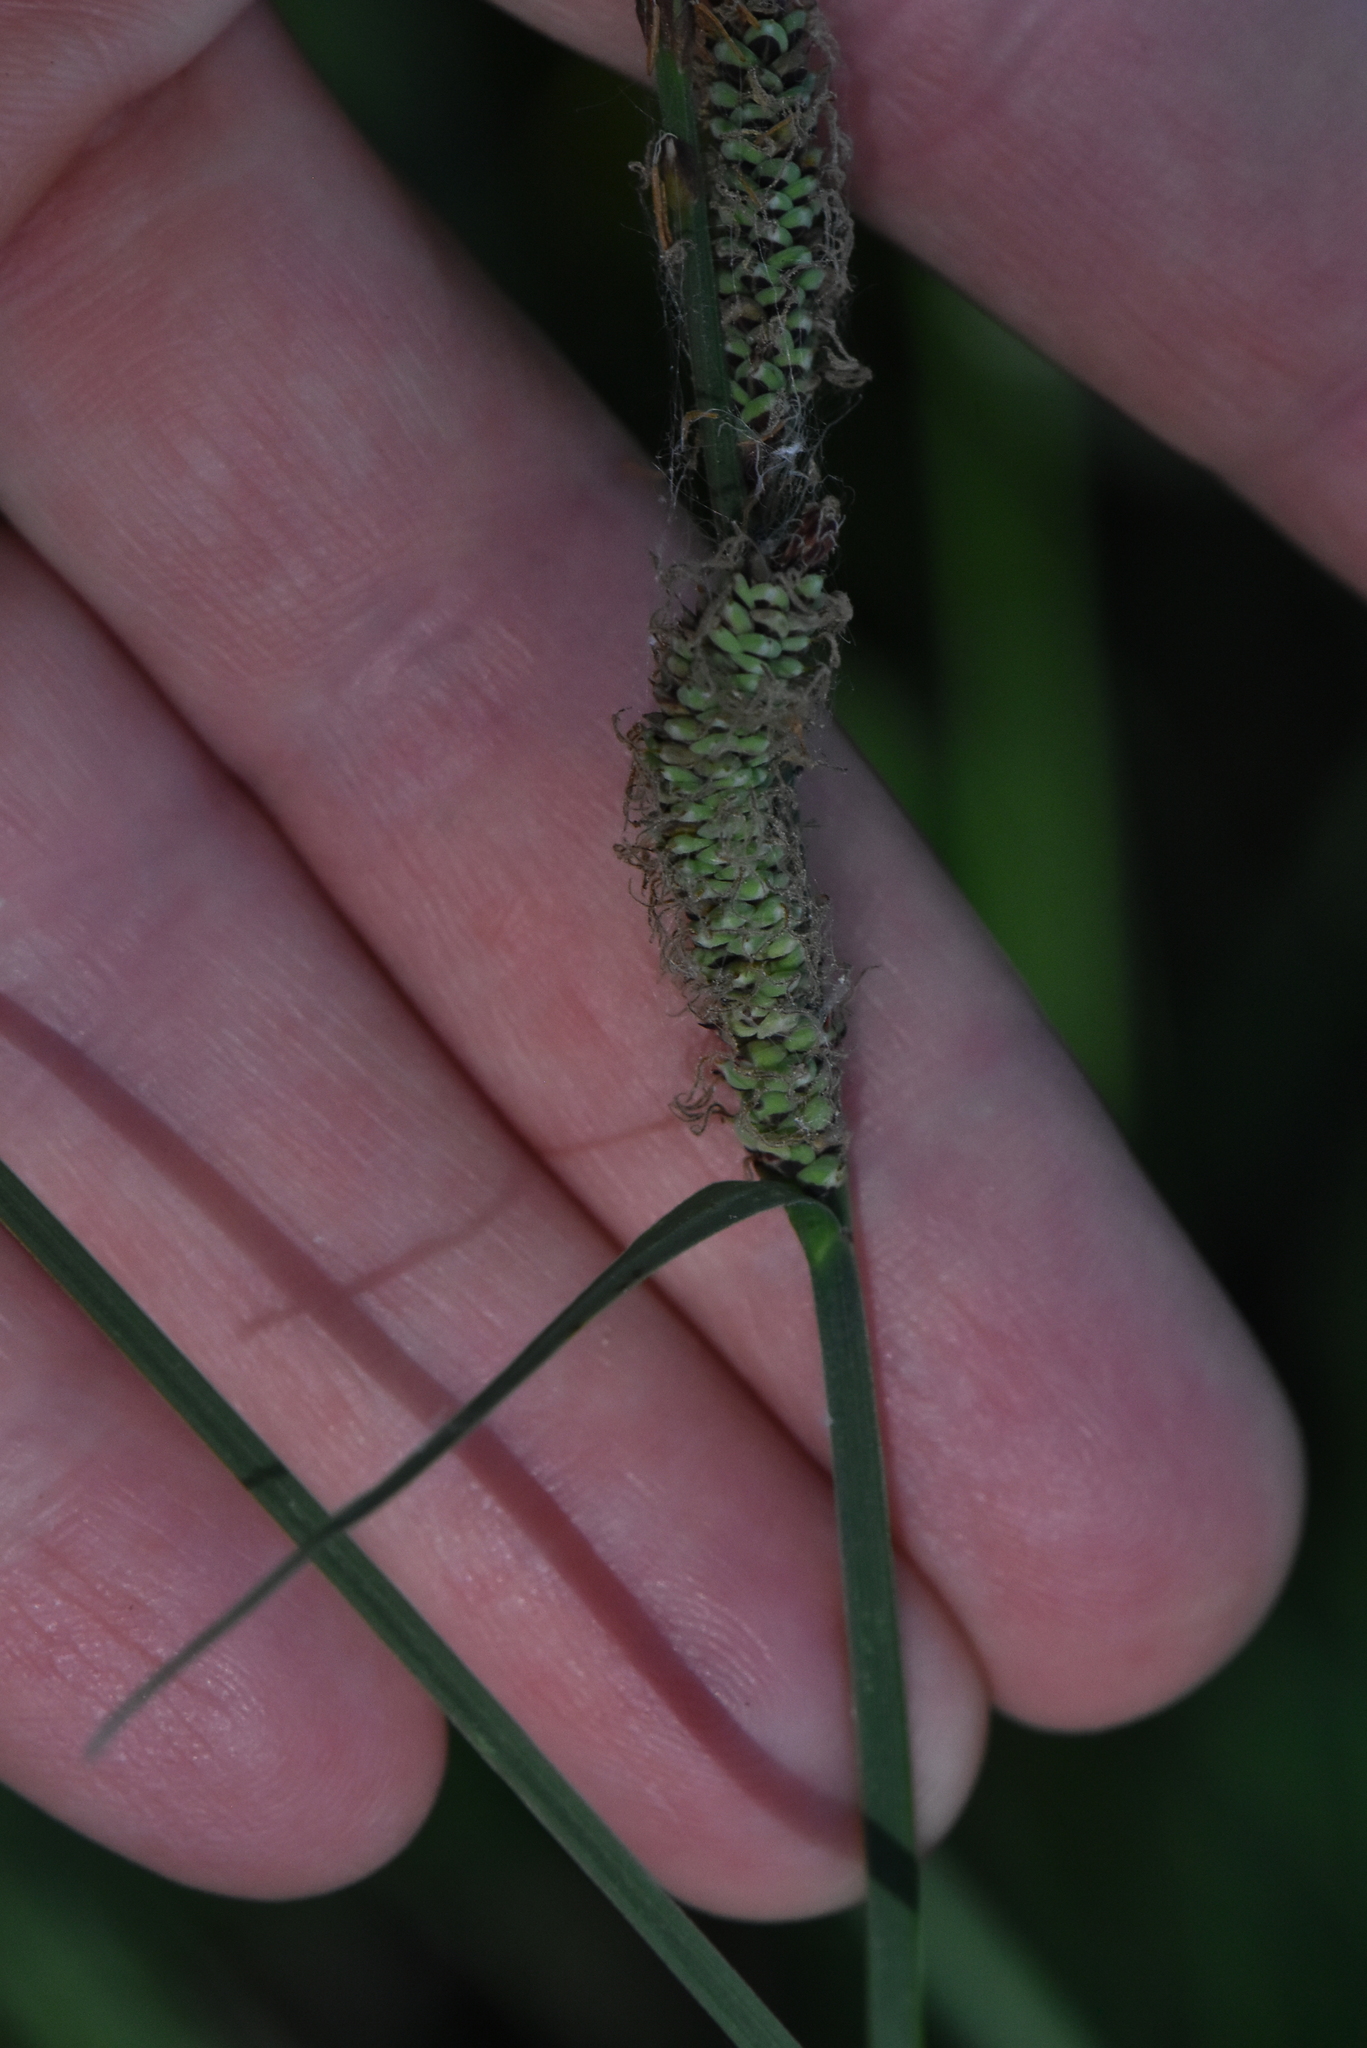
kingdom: Plantae
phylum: Tracheophyta
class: Liliopsida
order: Poales
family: Cyperaceae
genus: Carex
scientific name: Carex nigra
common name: Common sedge
